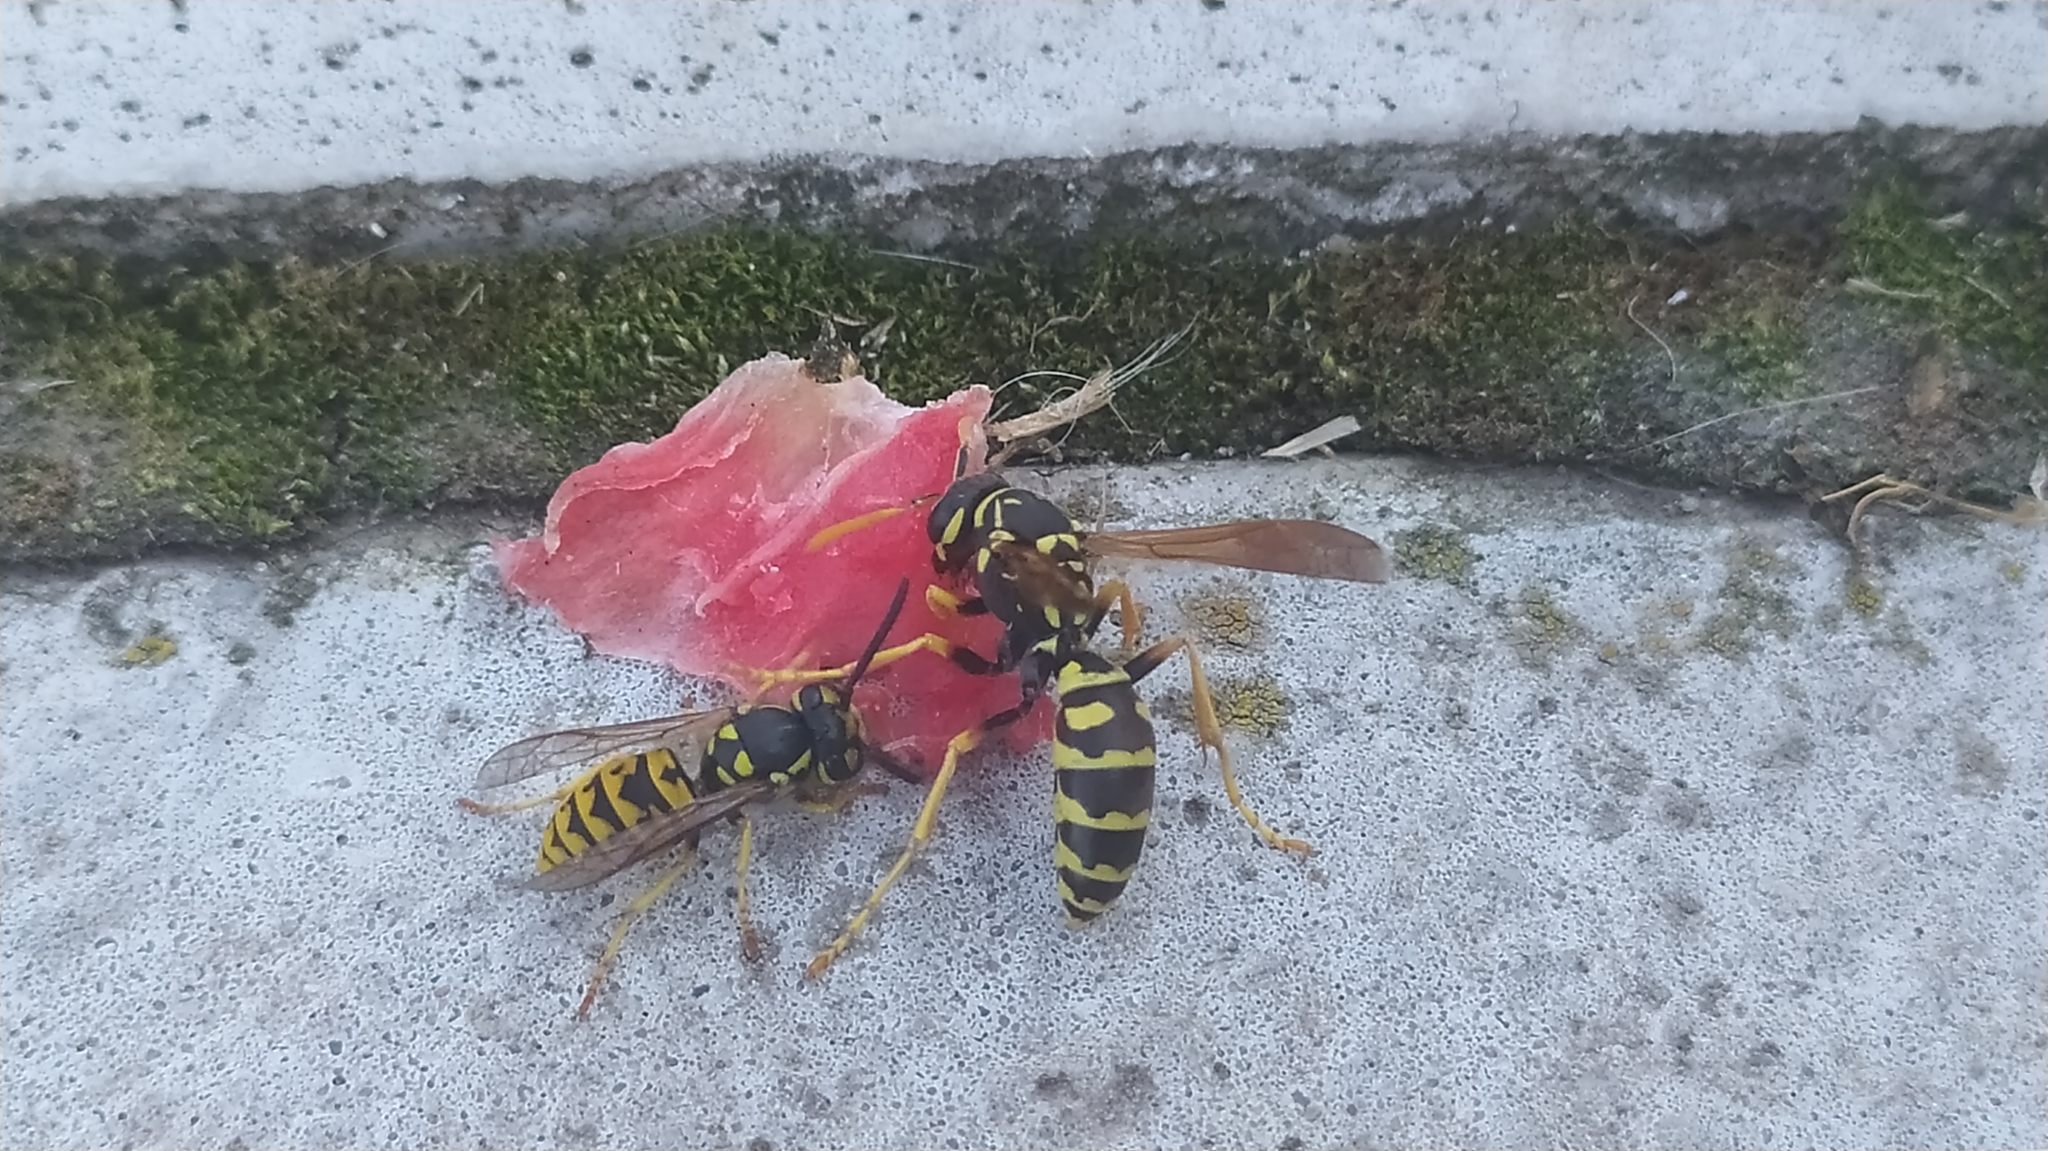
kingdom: Animalia
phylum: Arthropoda
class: Insecta
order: Hymenoptera
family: Vespidae
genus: Vespula
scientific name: Vespula germanica
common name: German wasp
